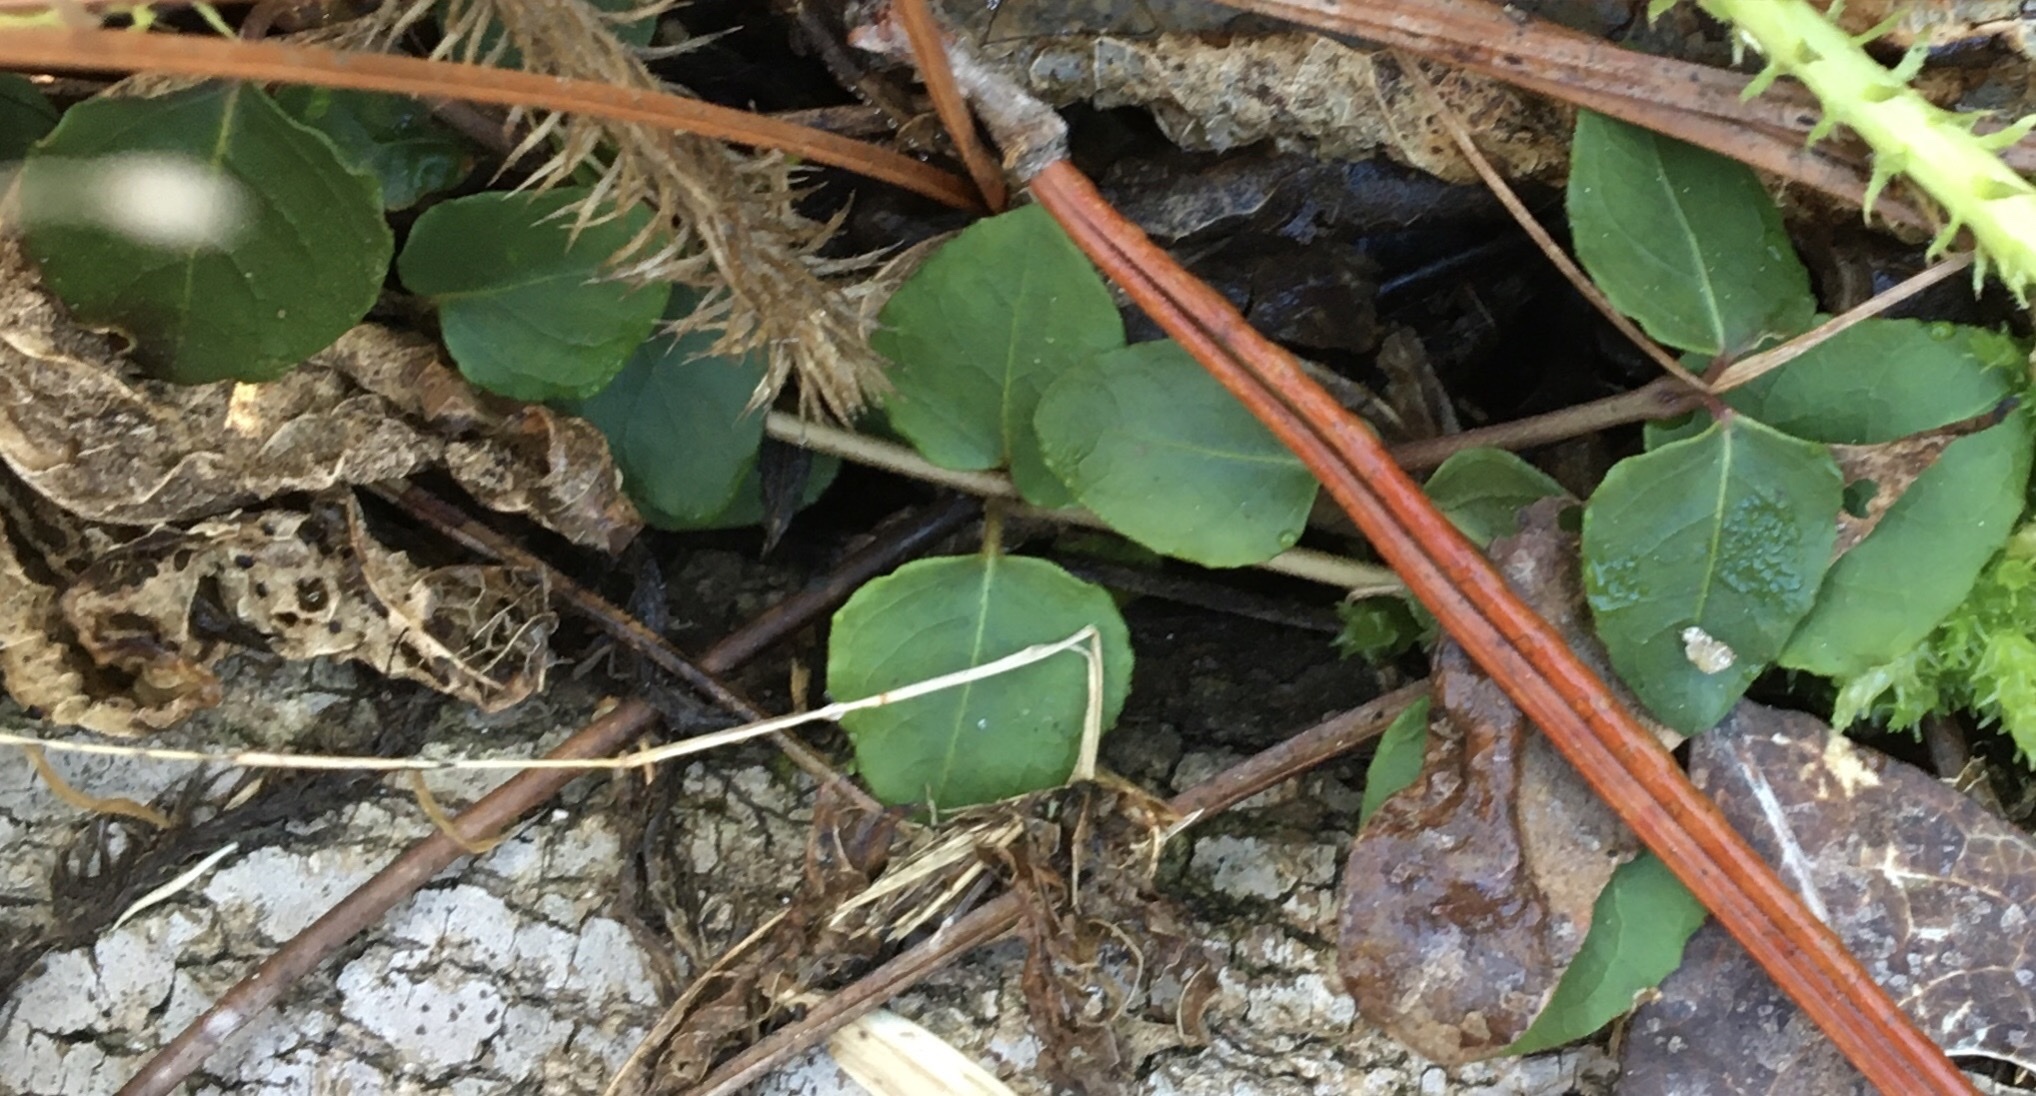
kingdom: Plantae
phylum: Tracheophyta
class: Magnoliopsida
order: Gentianales
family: Rubiaceae
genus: Mitchella
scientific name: Mitchella repens
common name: Partridge-berry
